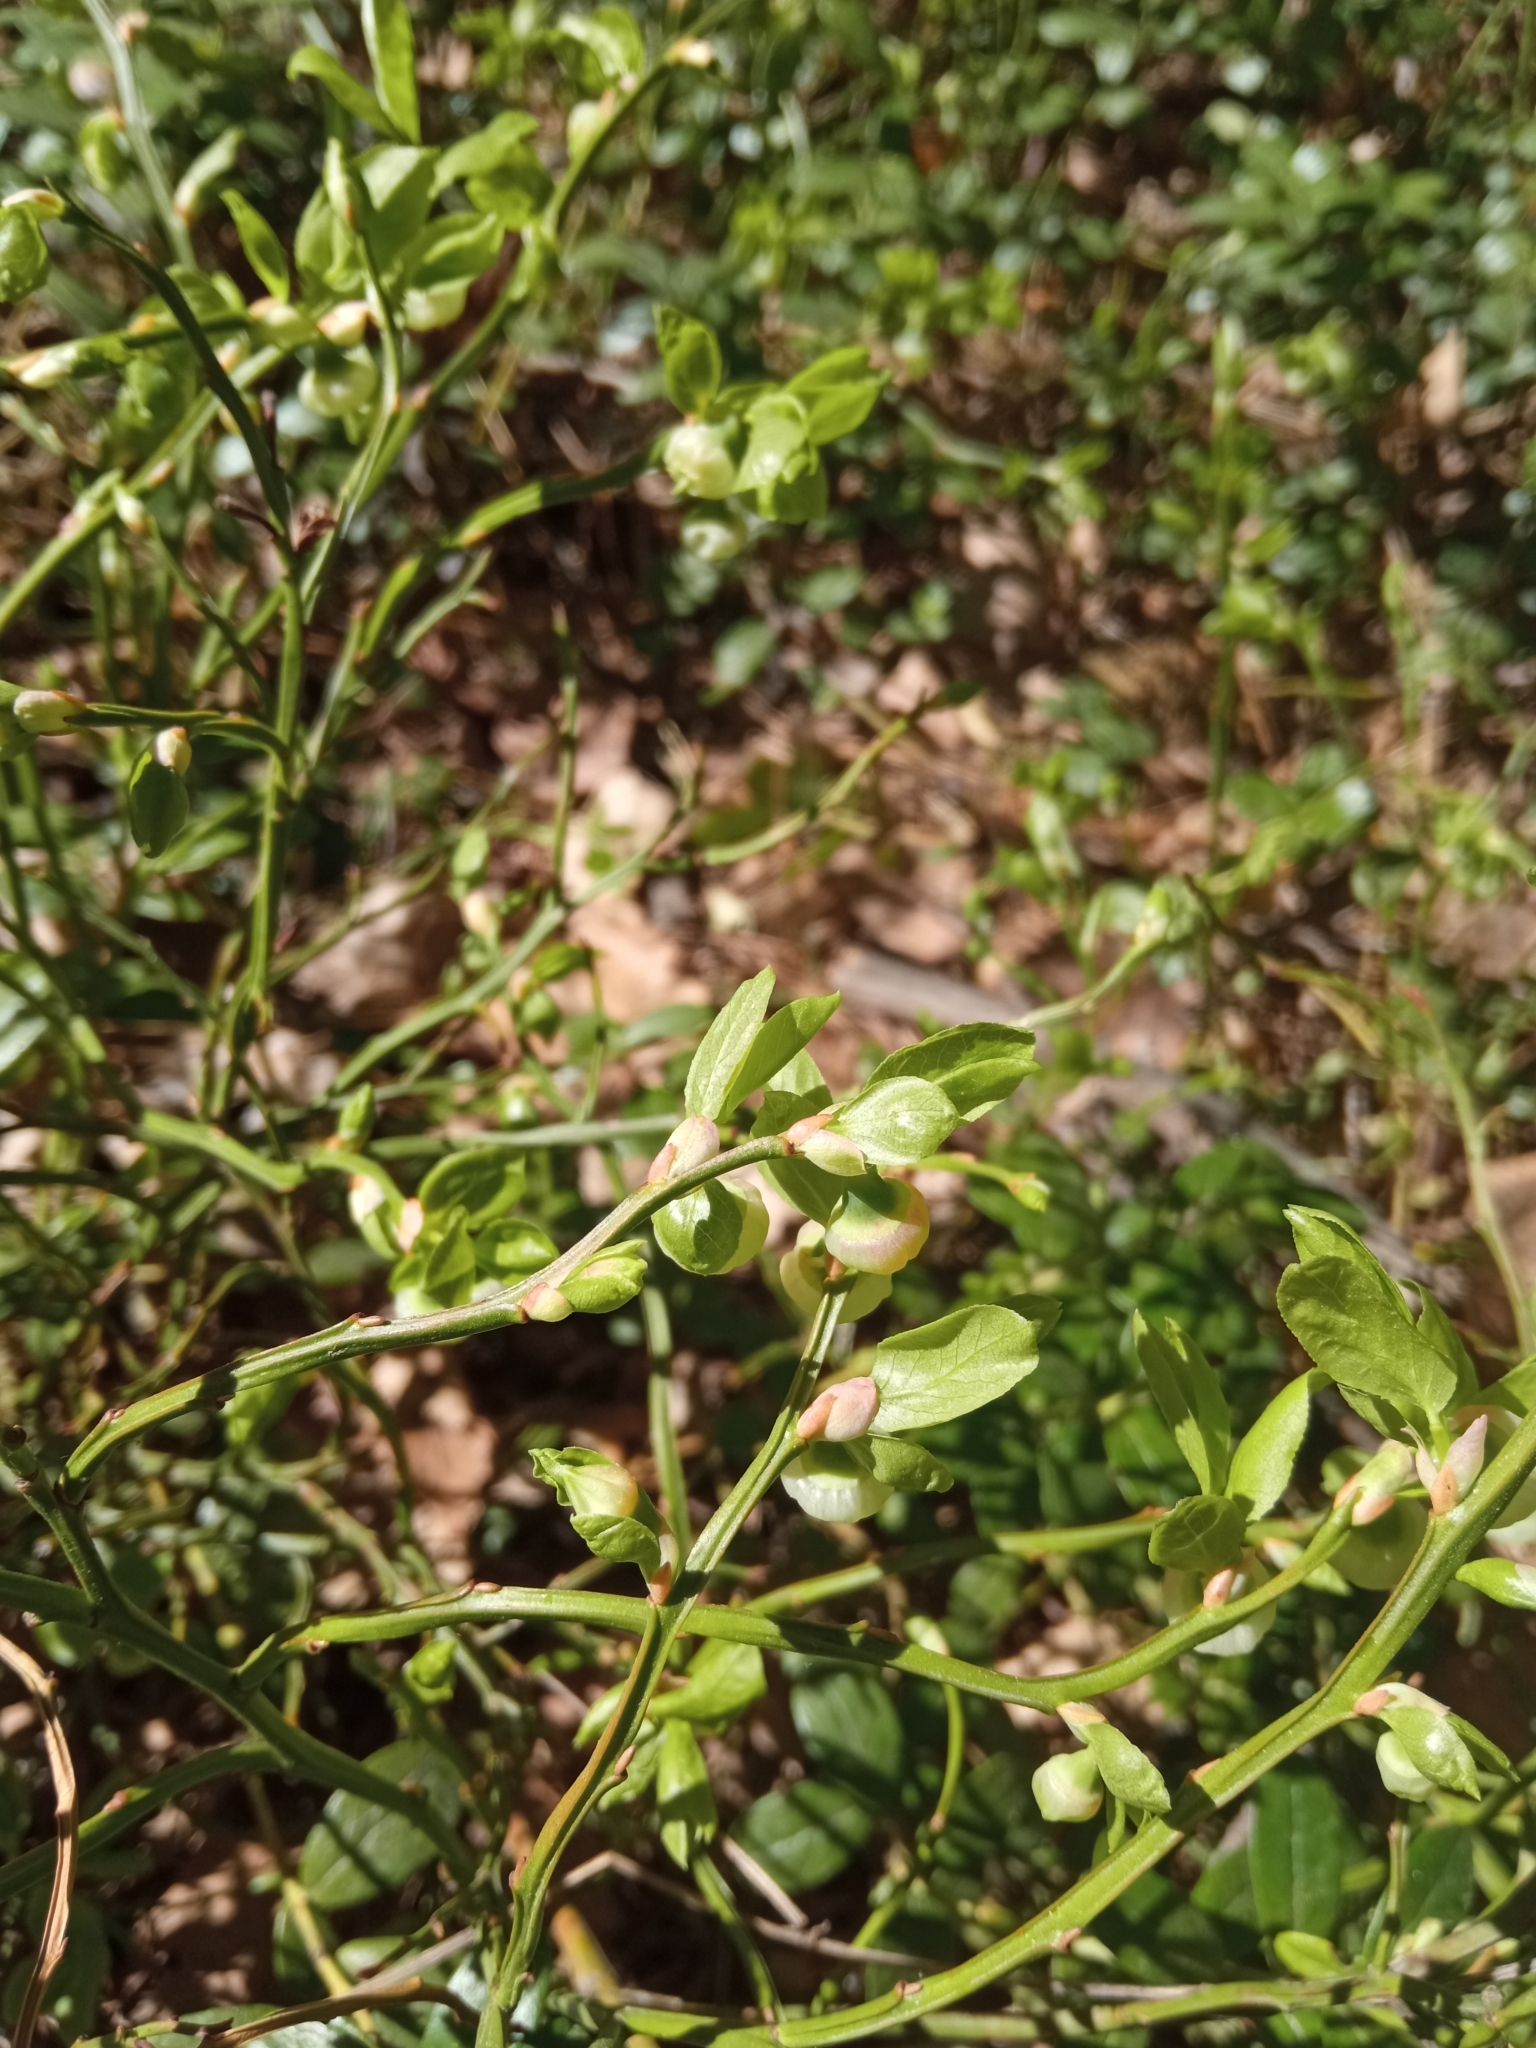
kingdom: Plantae
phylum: Tracheophyta
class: Magnoliopsida
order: Ericales
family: Ericaceae
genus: Vaccinium
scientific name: Vaccinium myrtillus
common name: Bilberry
